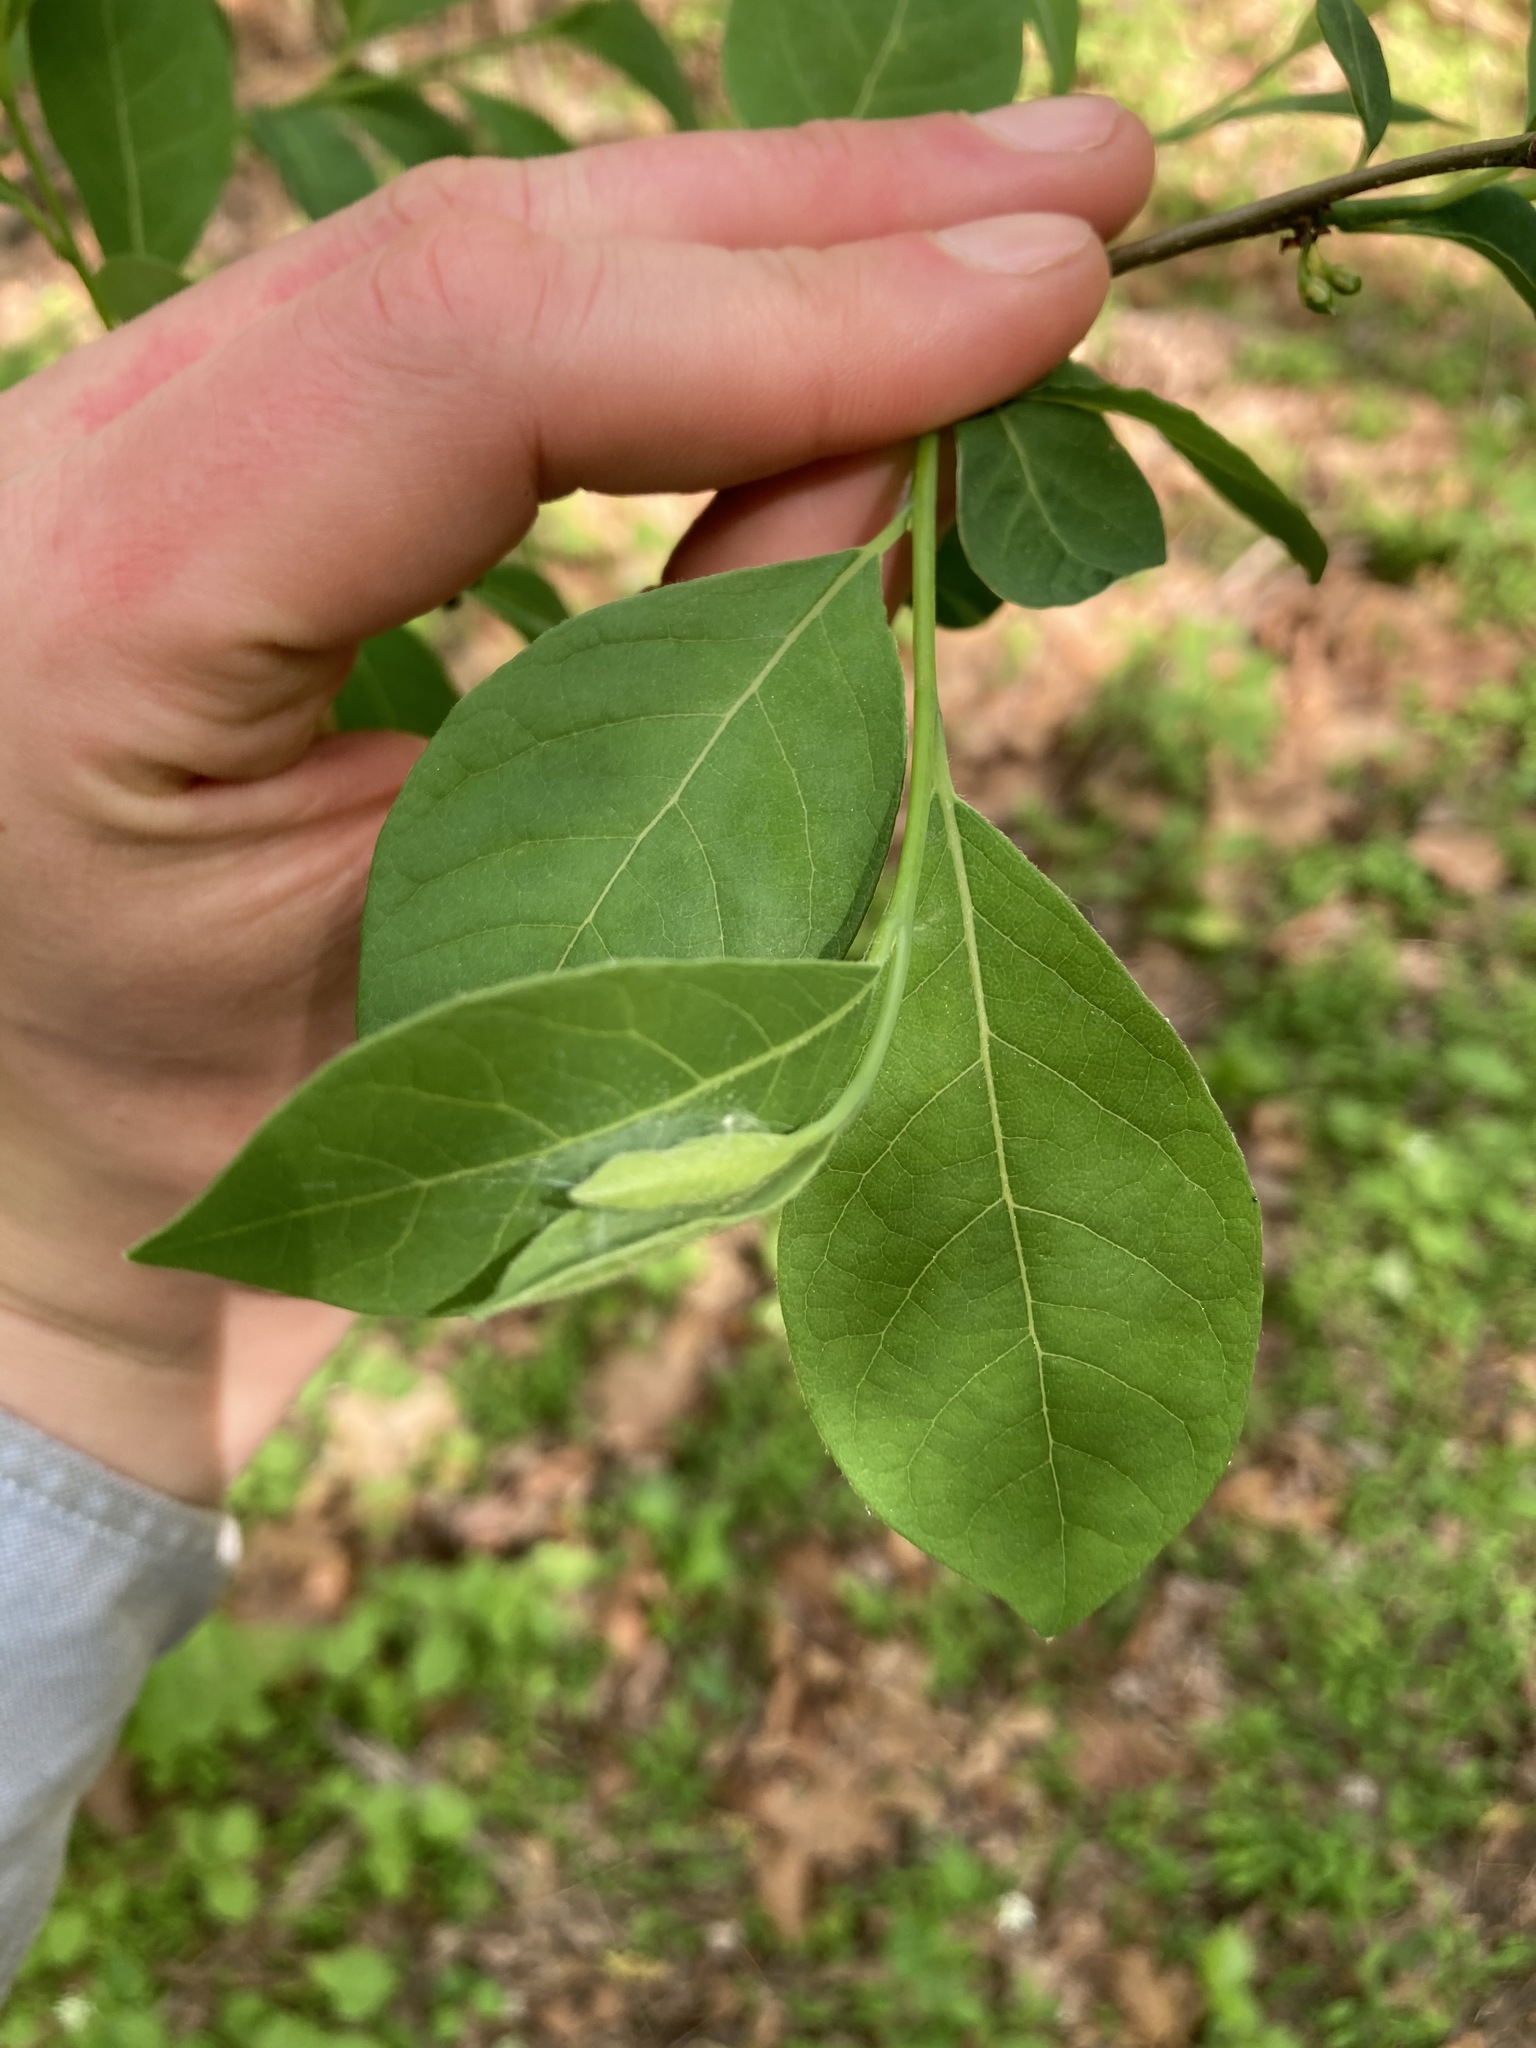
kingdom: Plantae
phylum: Tracheophyta
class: Magnoliopsida
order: Laurales
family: Lauraceae
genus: Lindera
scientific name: Lindera benzoin
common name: Spicebush
